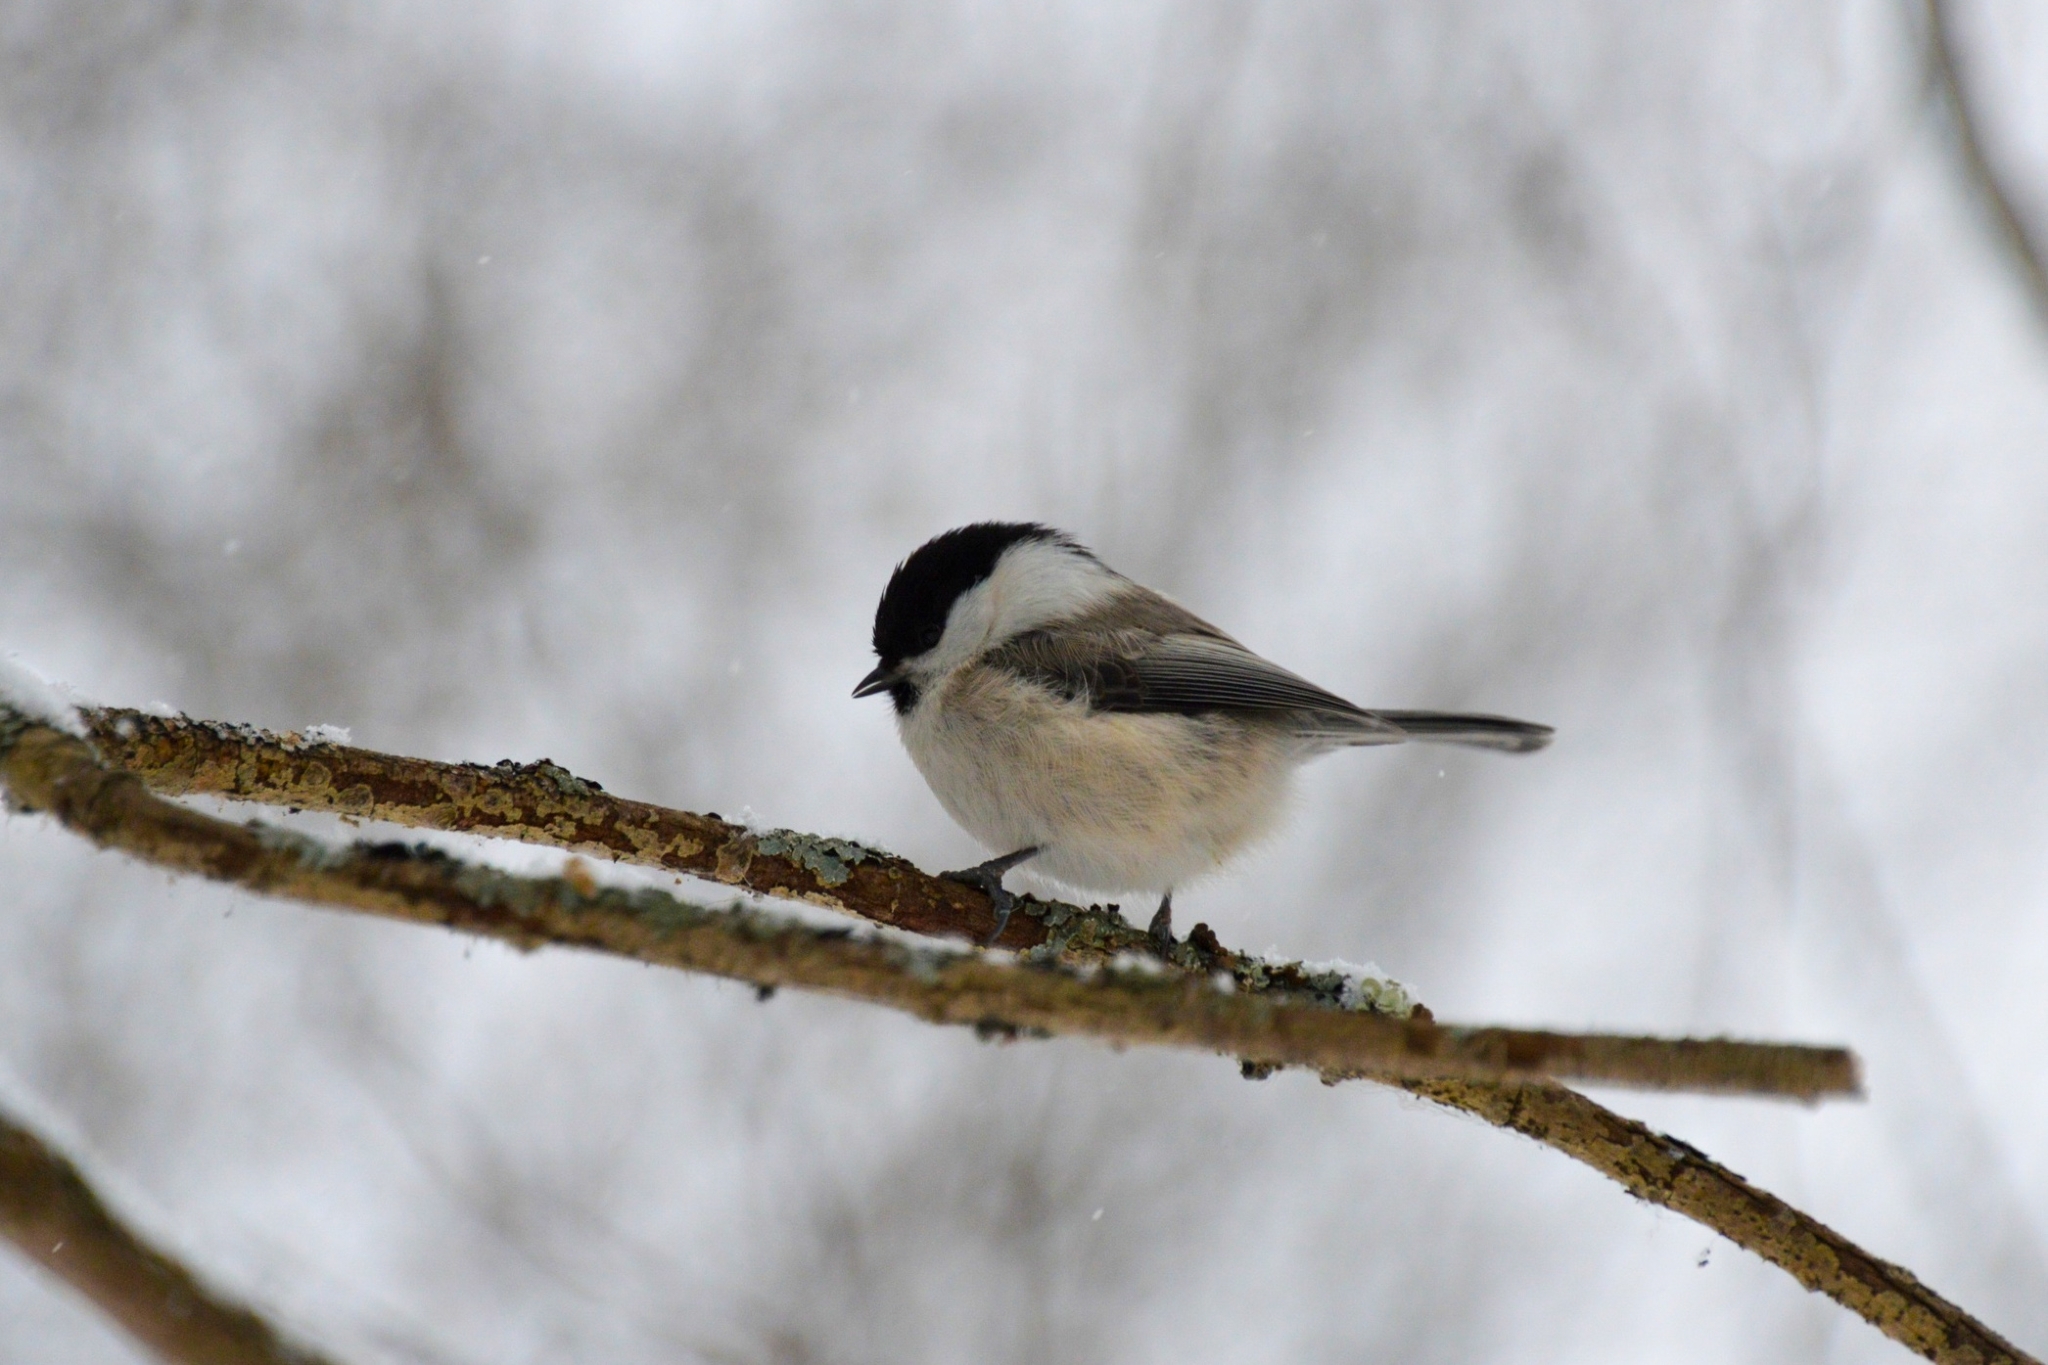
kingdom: Animalia
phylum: Chordata
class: Aves
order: Passeriformes
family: Paridae
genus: Poecile
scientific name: Poecile montanus
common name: Willow tit
